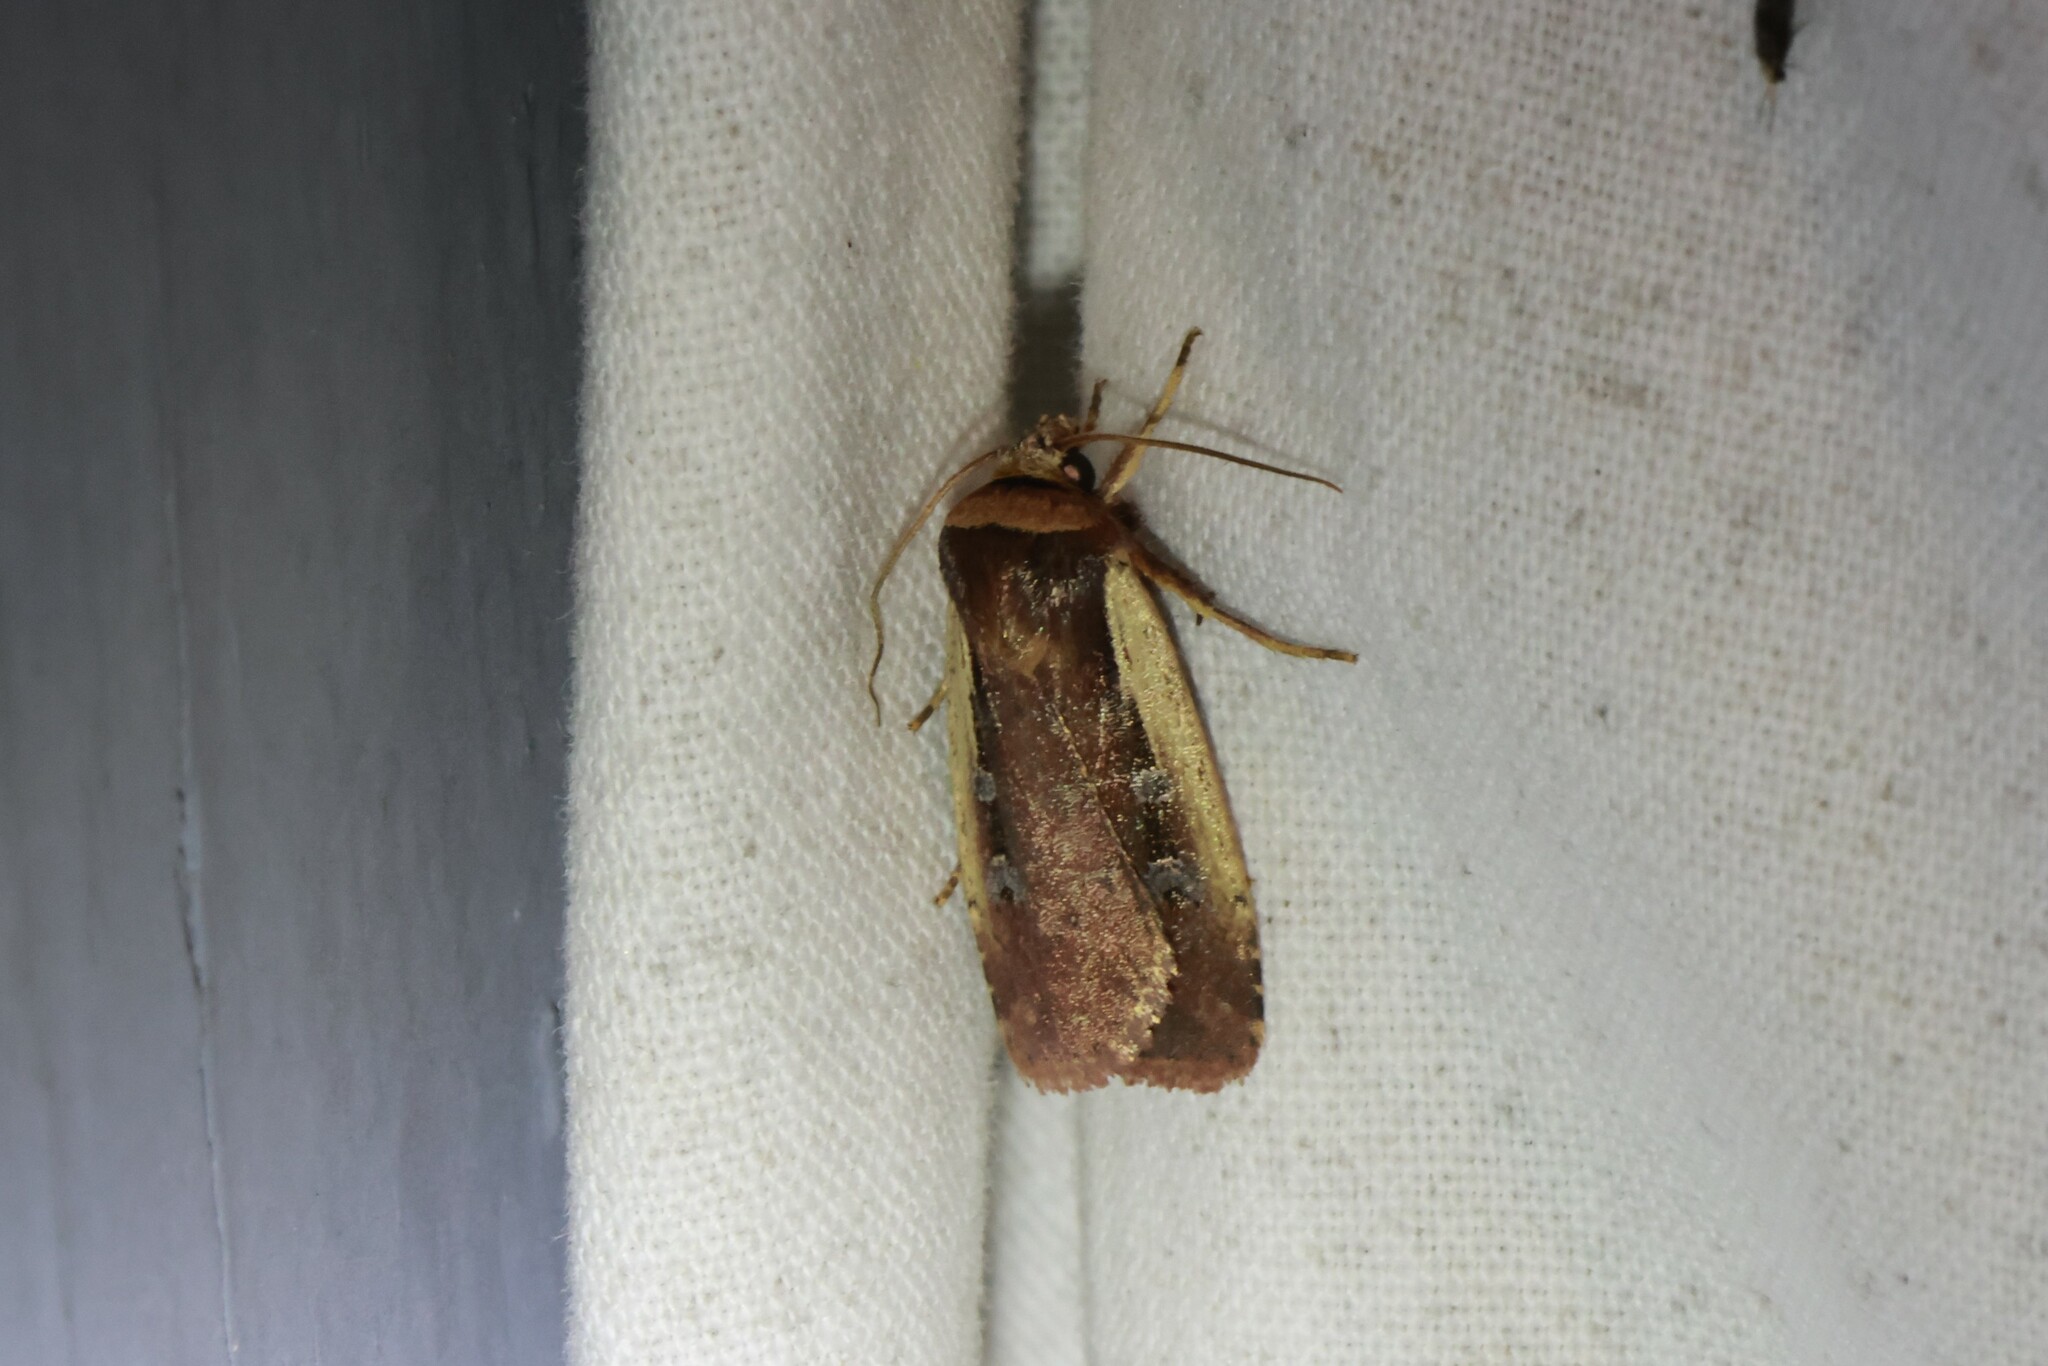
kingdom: Animalia
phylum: Arthropoda
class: Insecta
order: Lepidoptera
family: Noctuidae
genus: Ochropleura
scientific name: Ochropleura implecta
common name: Flame-shouldered dart
